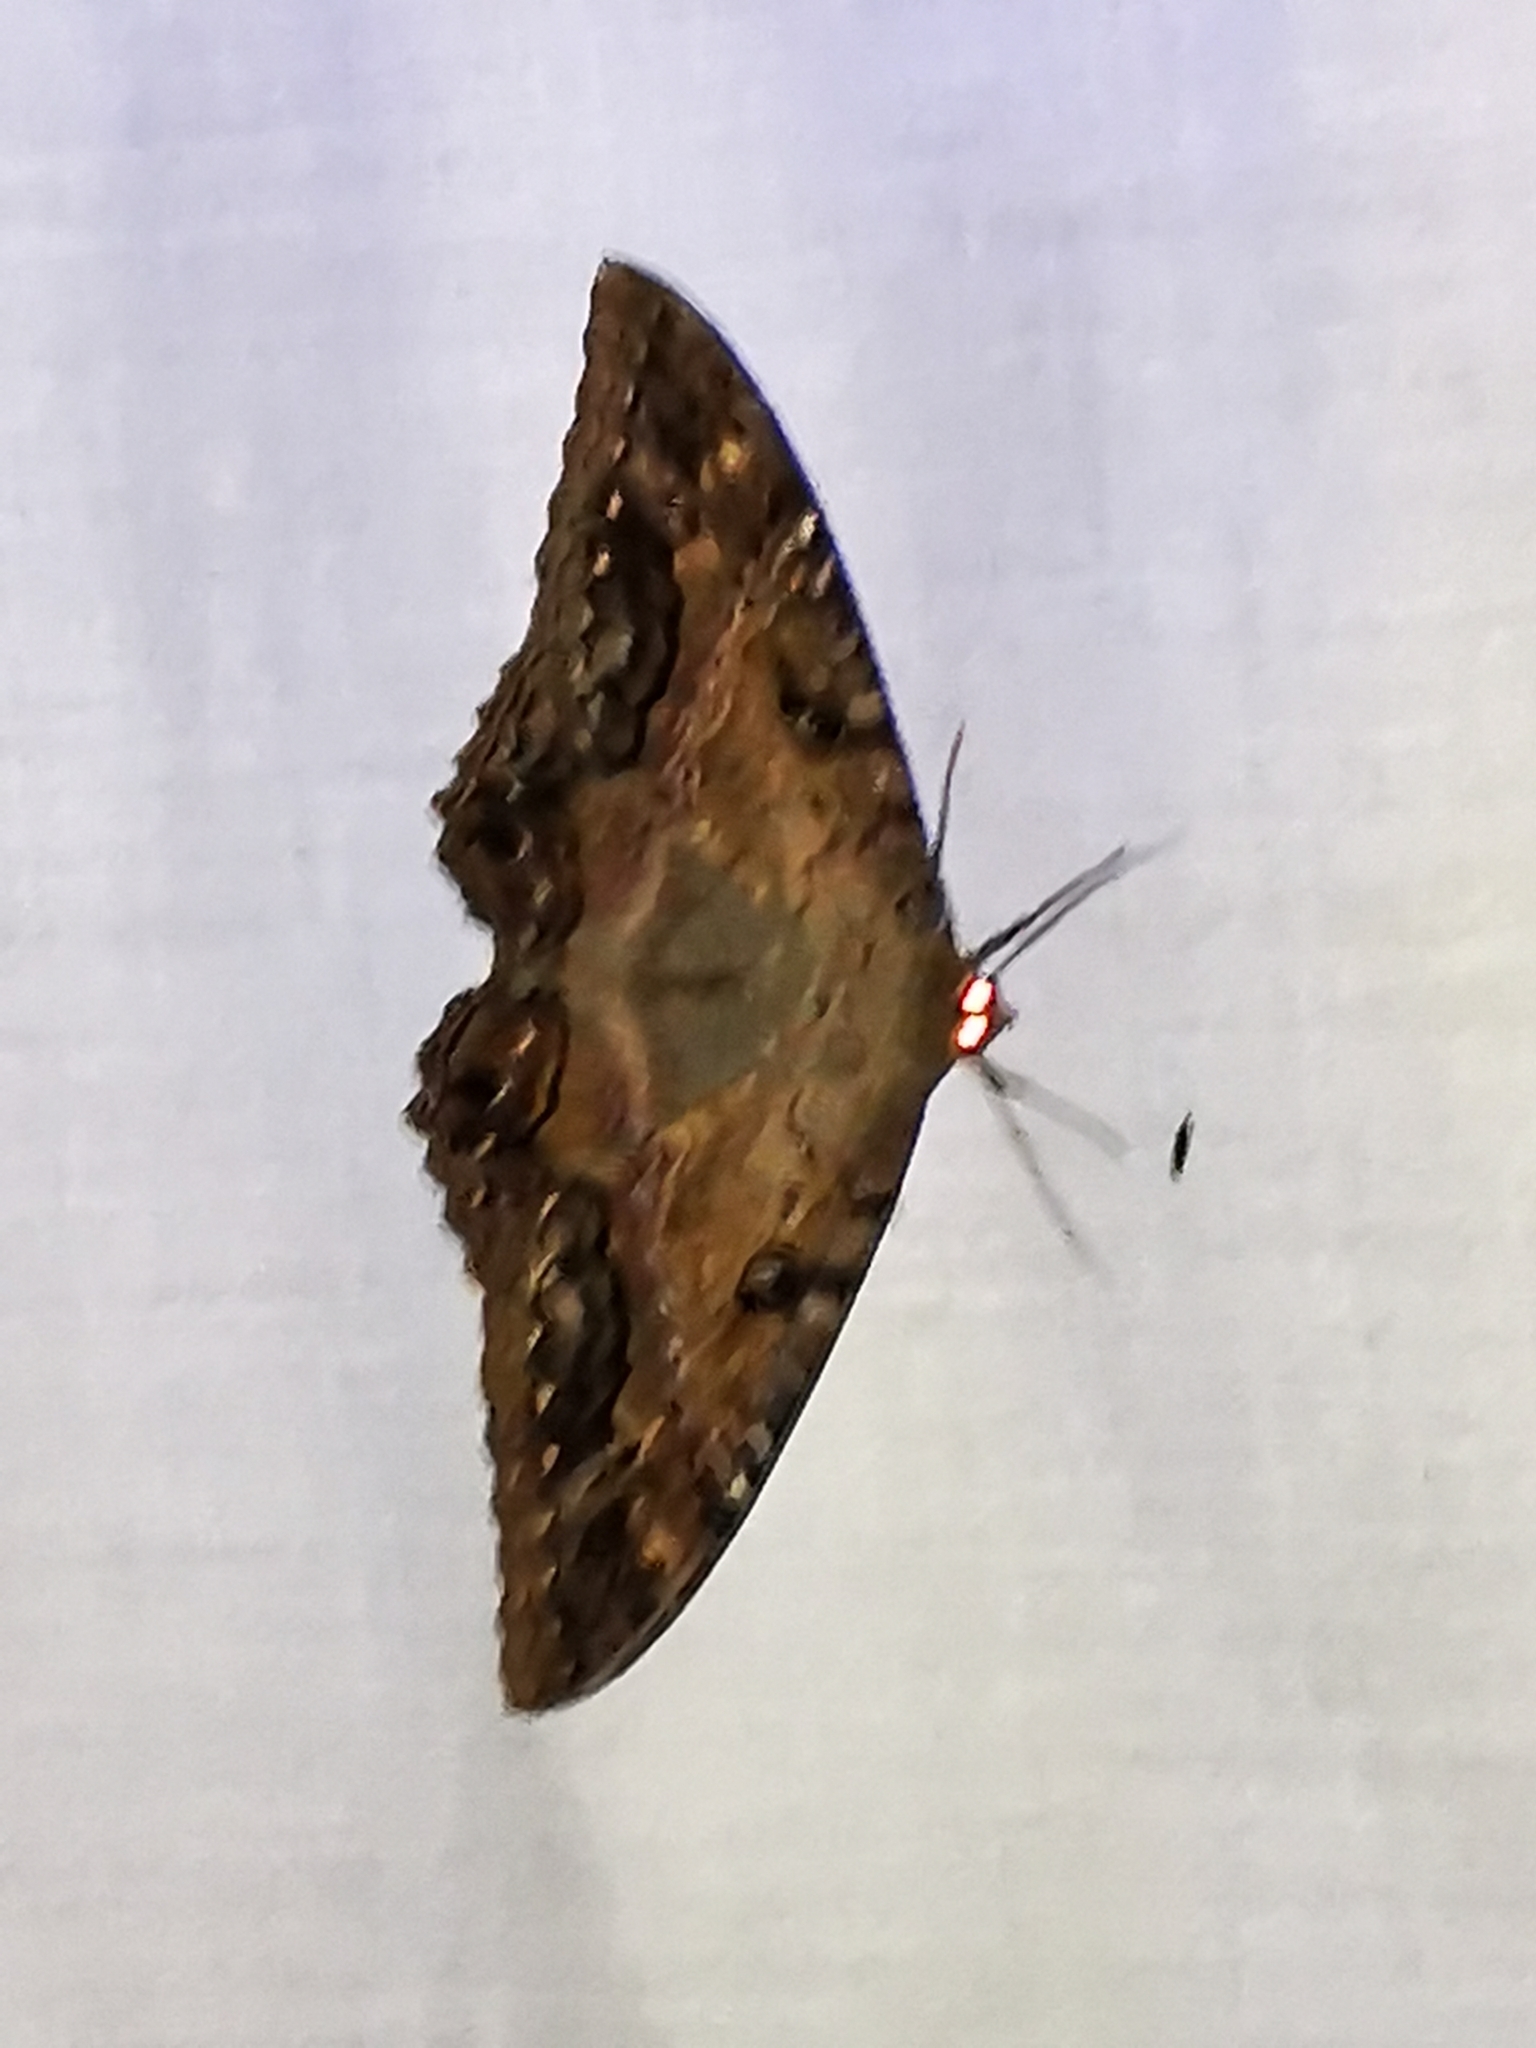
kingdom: Animalia
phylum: Arthropoda
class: Insecta
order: Lepidoptera
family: Erebidae
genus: Ascalapha
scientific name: Ascalapha odorata
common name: Black witch
